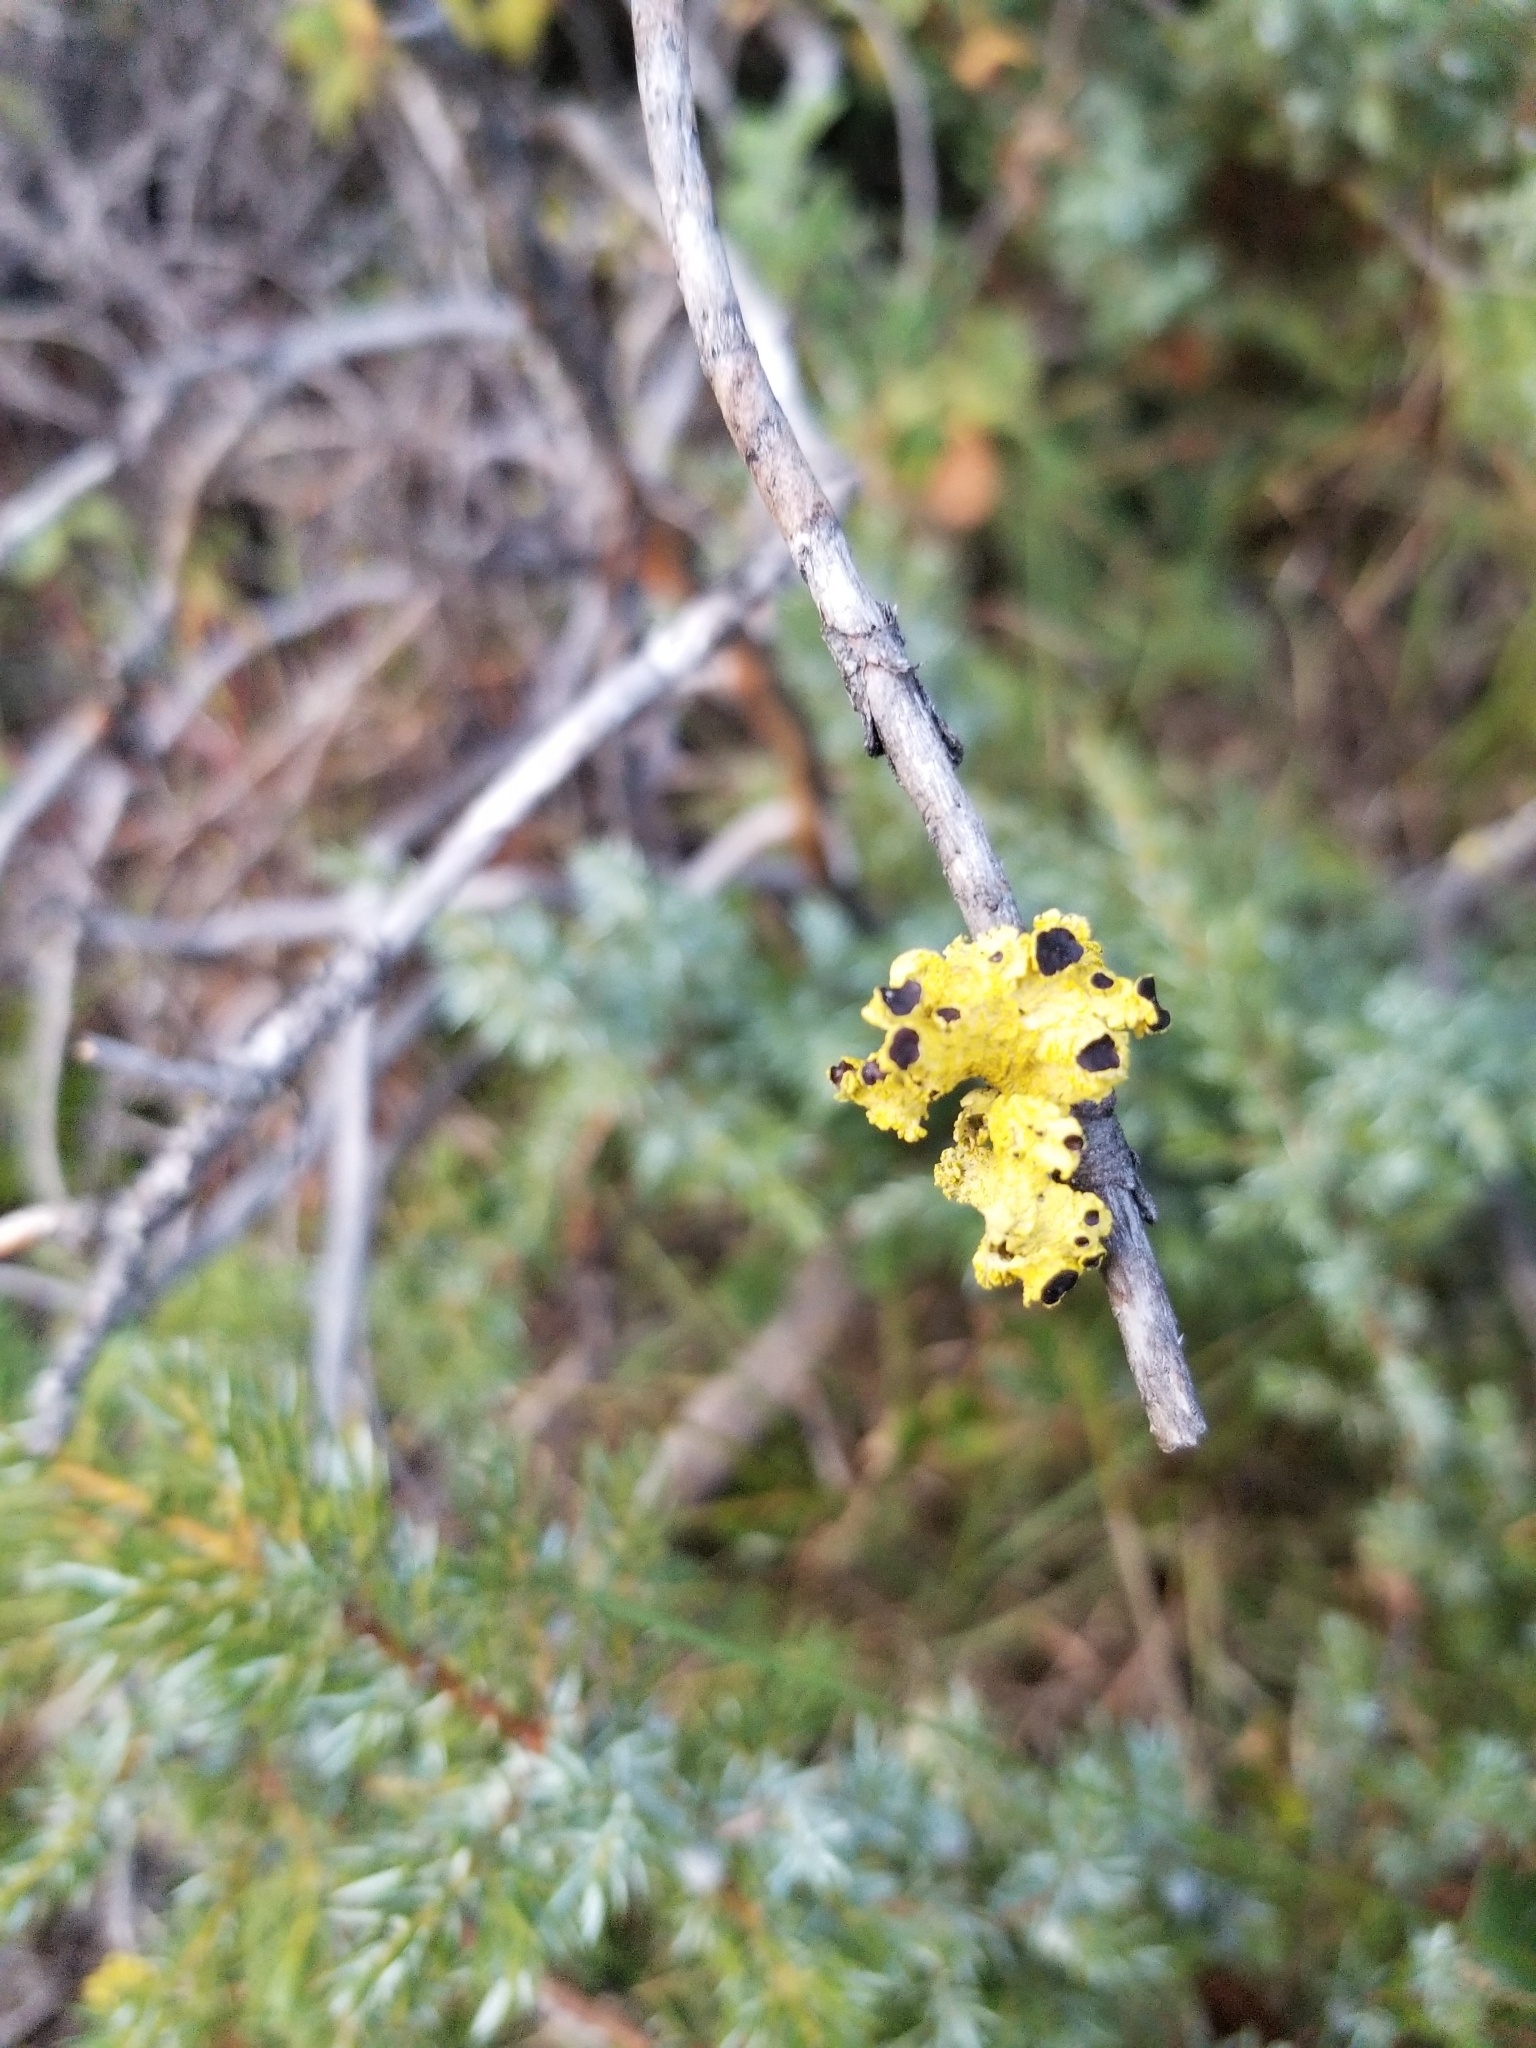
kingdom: Fungi
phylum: Ascomycota
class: Lecanoromycetes
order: Lecanorales
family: Parmeliaceae
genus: Vulpicida
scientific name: Vulpicida canadensis
